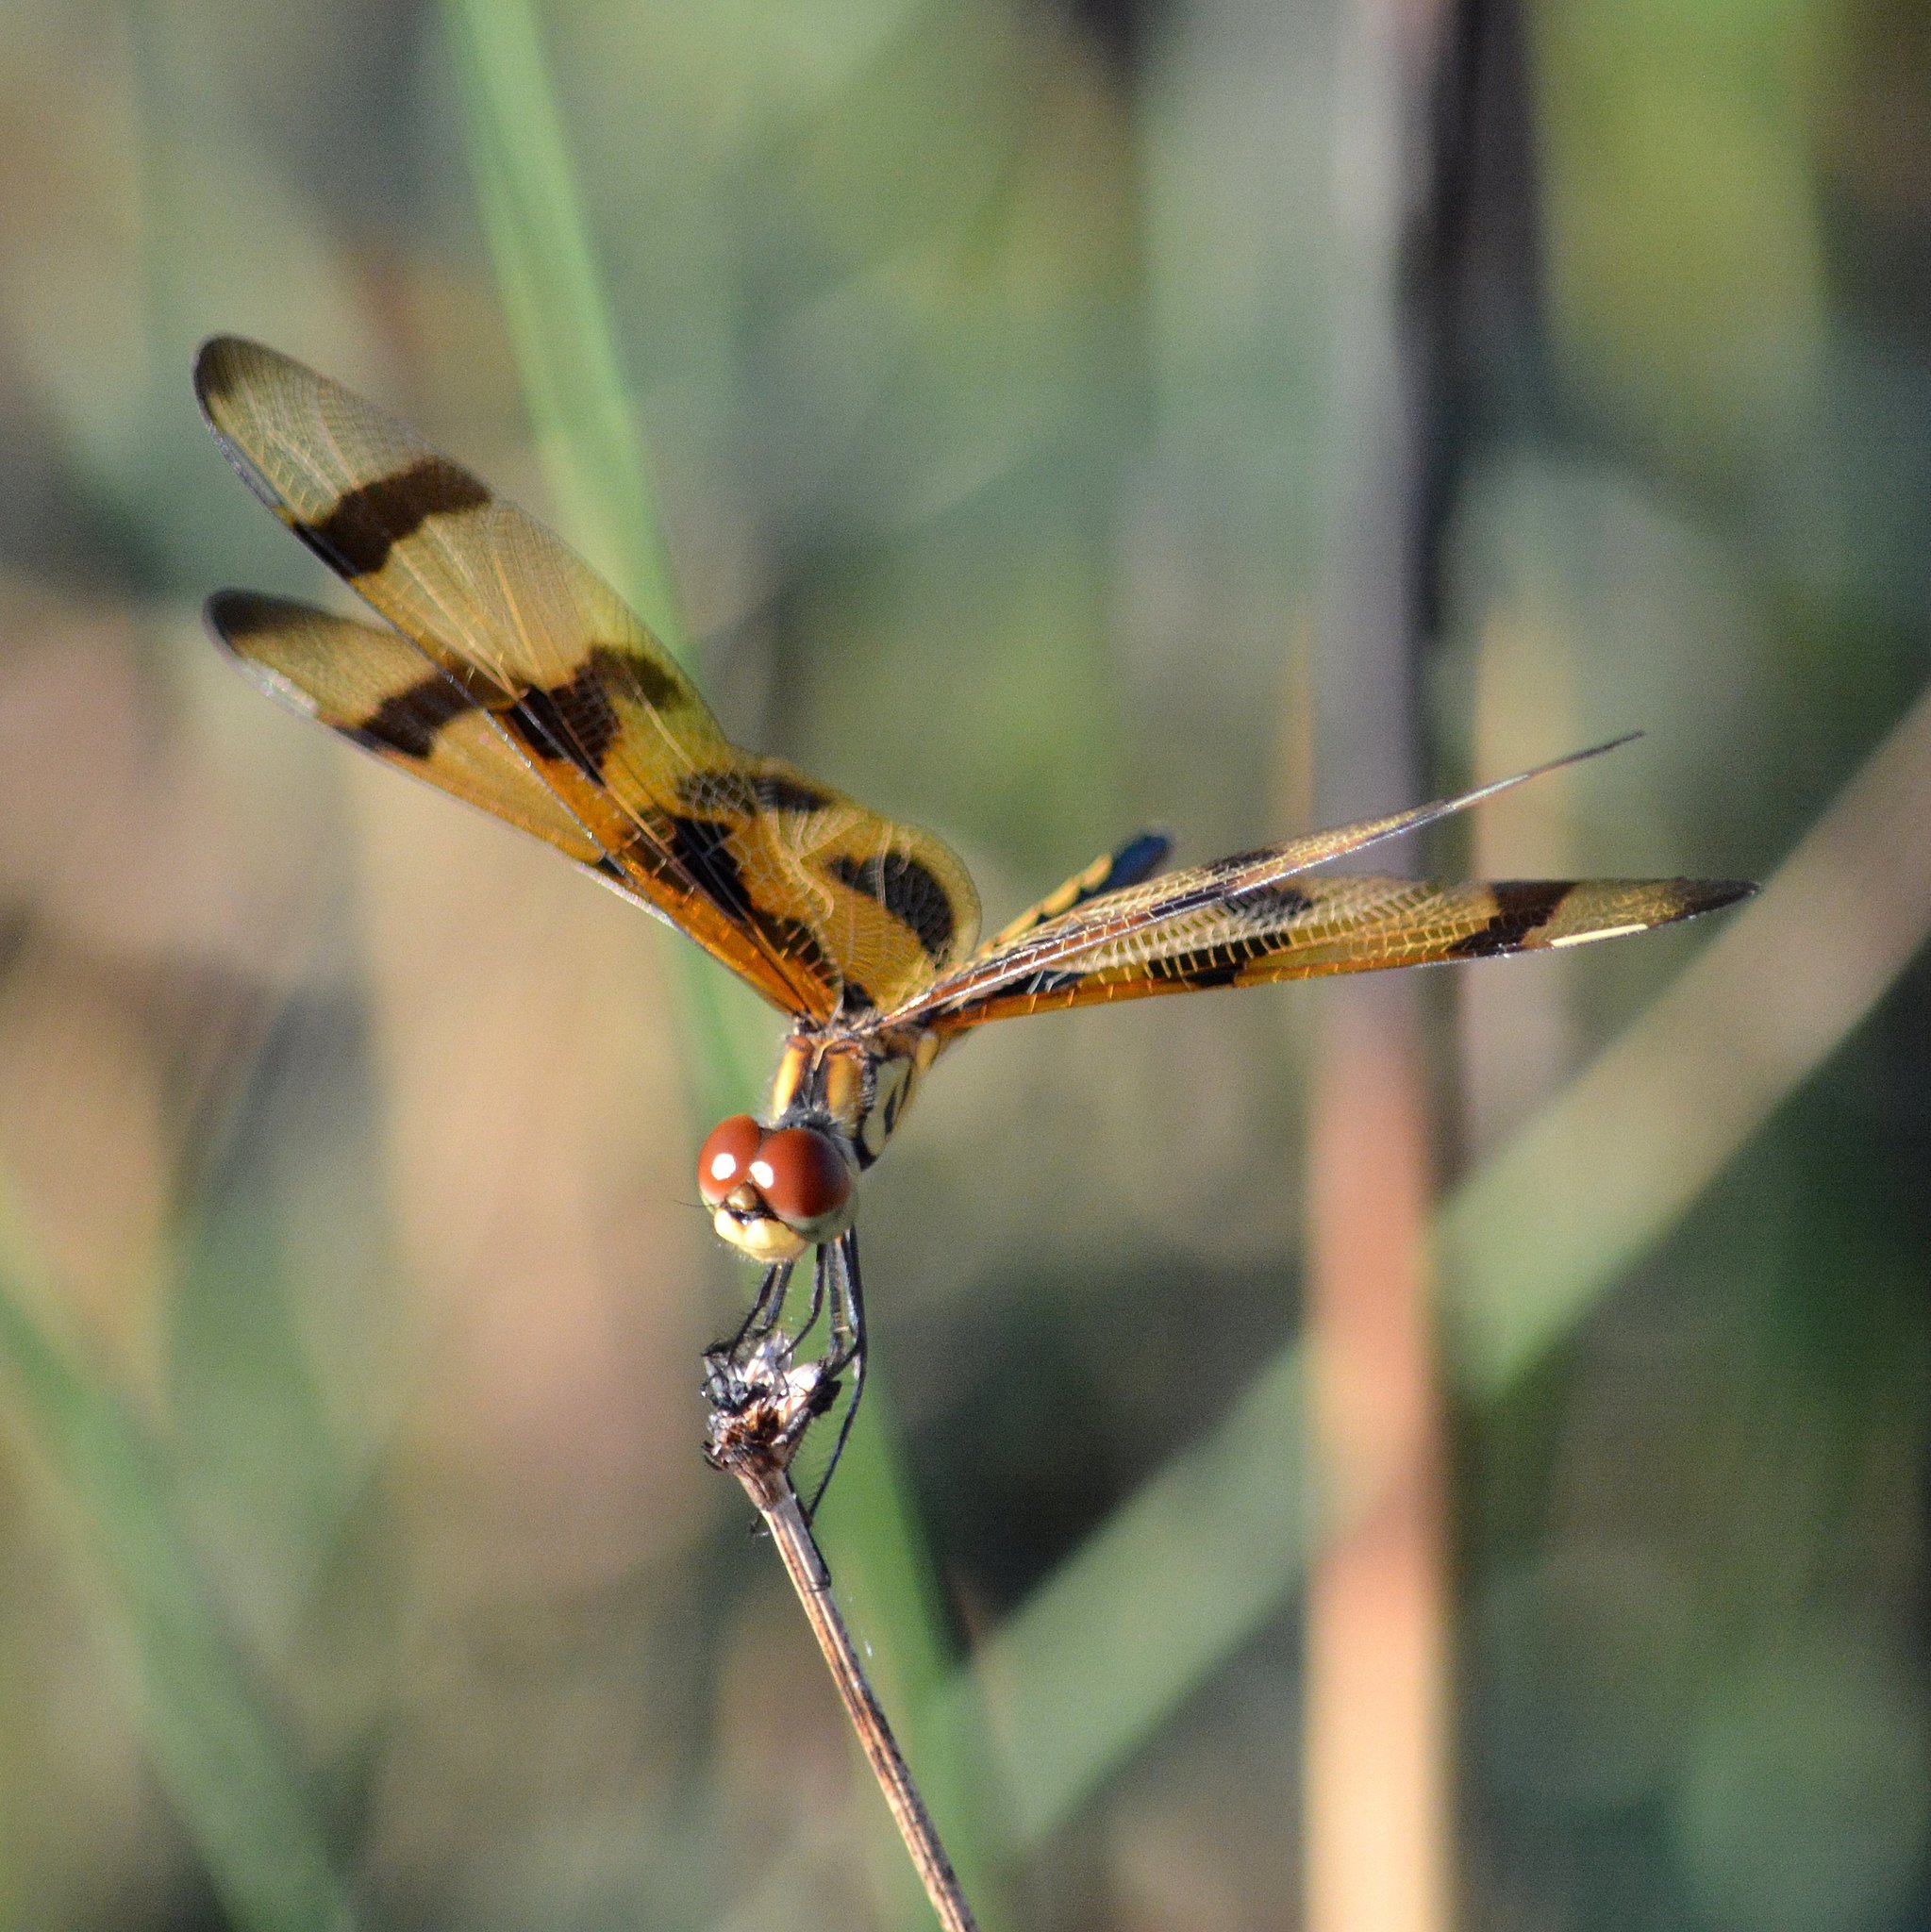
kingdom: Animalia
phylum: Arthropoda
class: Insecta
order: Odonata
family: Libellulidae
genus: Celithemis
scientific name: Celithemis eponina
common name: Halloween pennant
